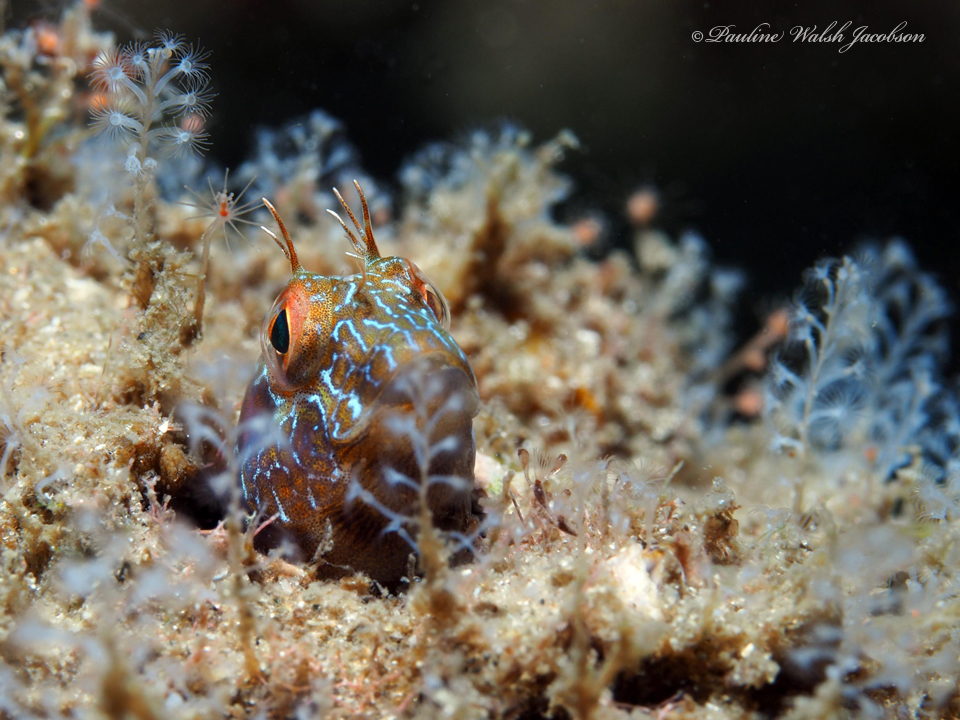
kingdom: Animalia
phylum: Chordata
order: Perciformes
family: Blenniidae
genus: Parablennius
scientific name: Parablennius marmoreus
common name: Seaweed blenny
